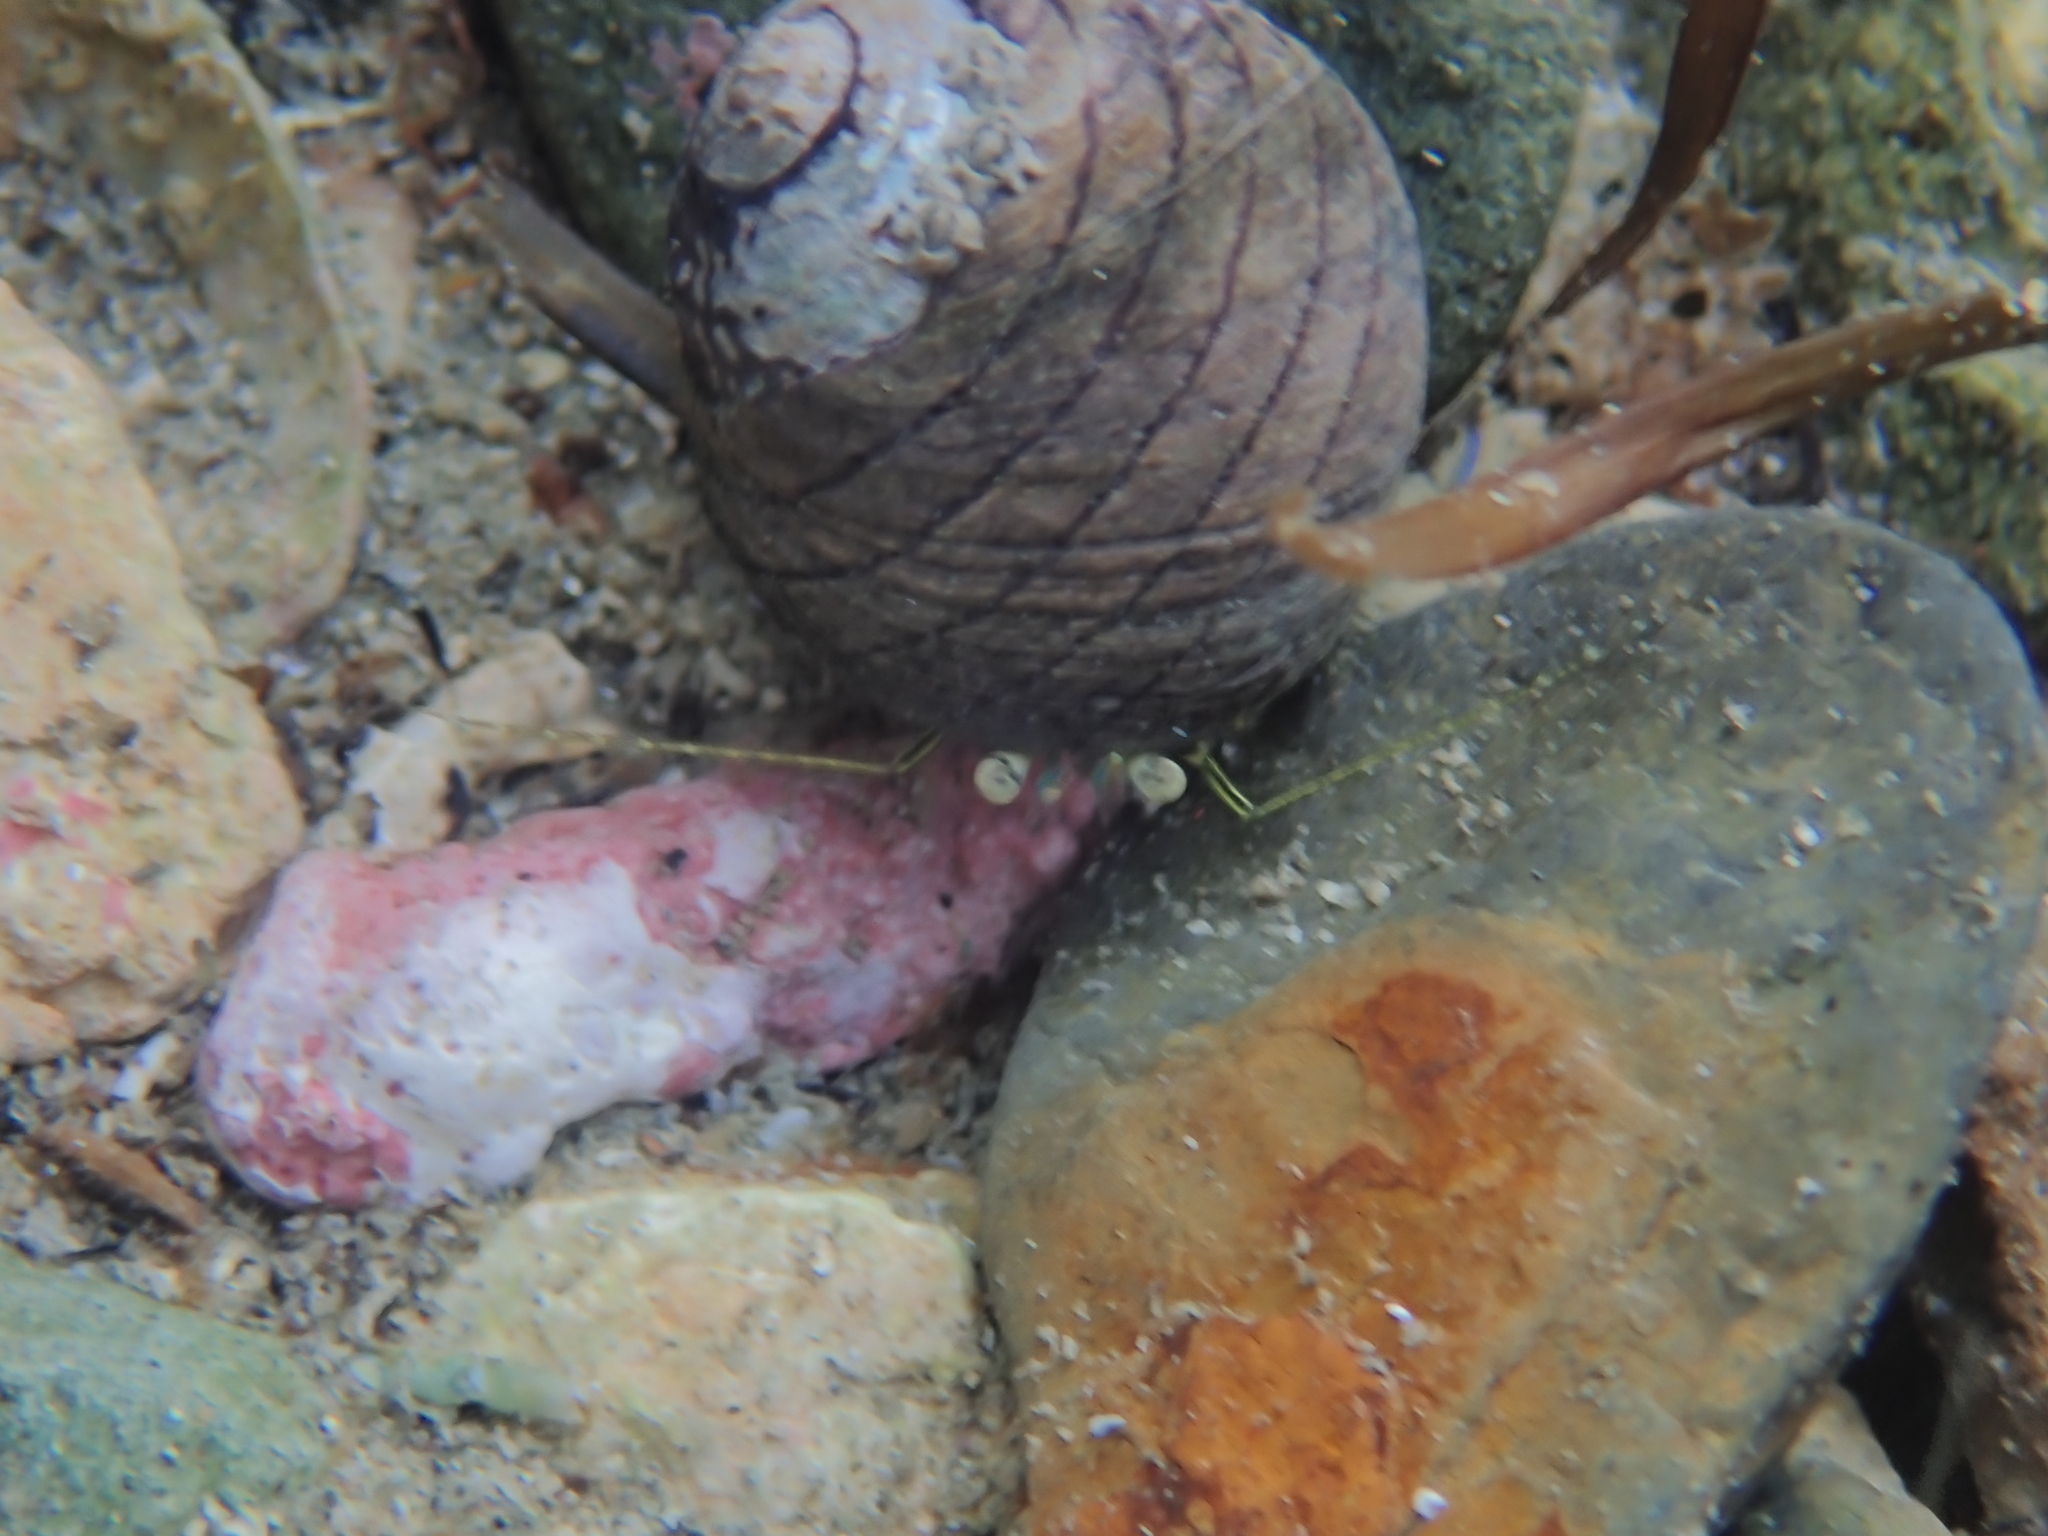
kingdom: Animalia
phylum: Arthropoda
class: Malacostraca
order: Decapoda
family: Paguridae
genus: Pagurus
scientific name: Pagurus novizealandiae
